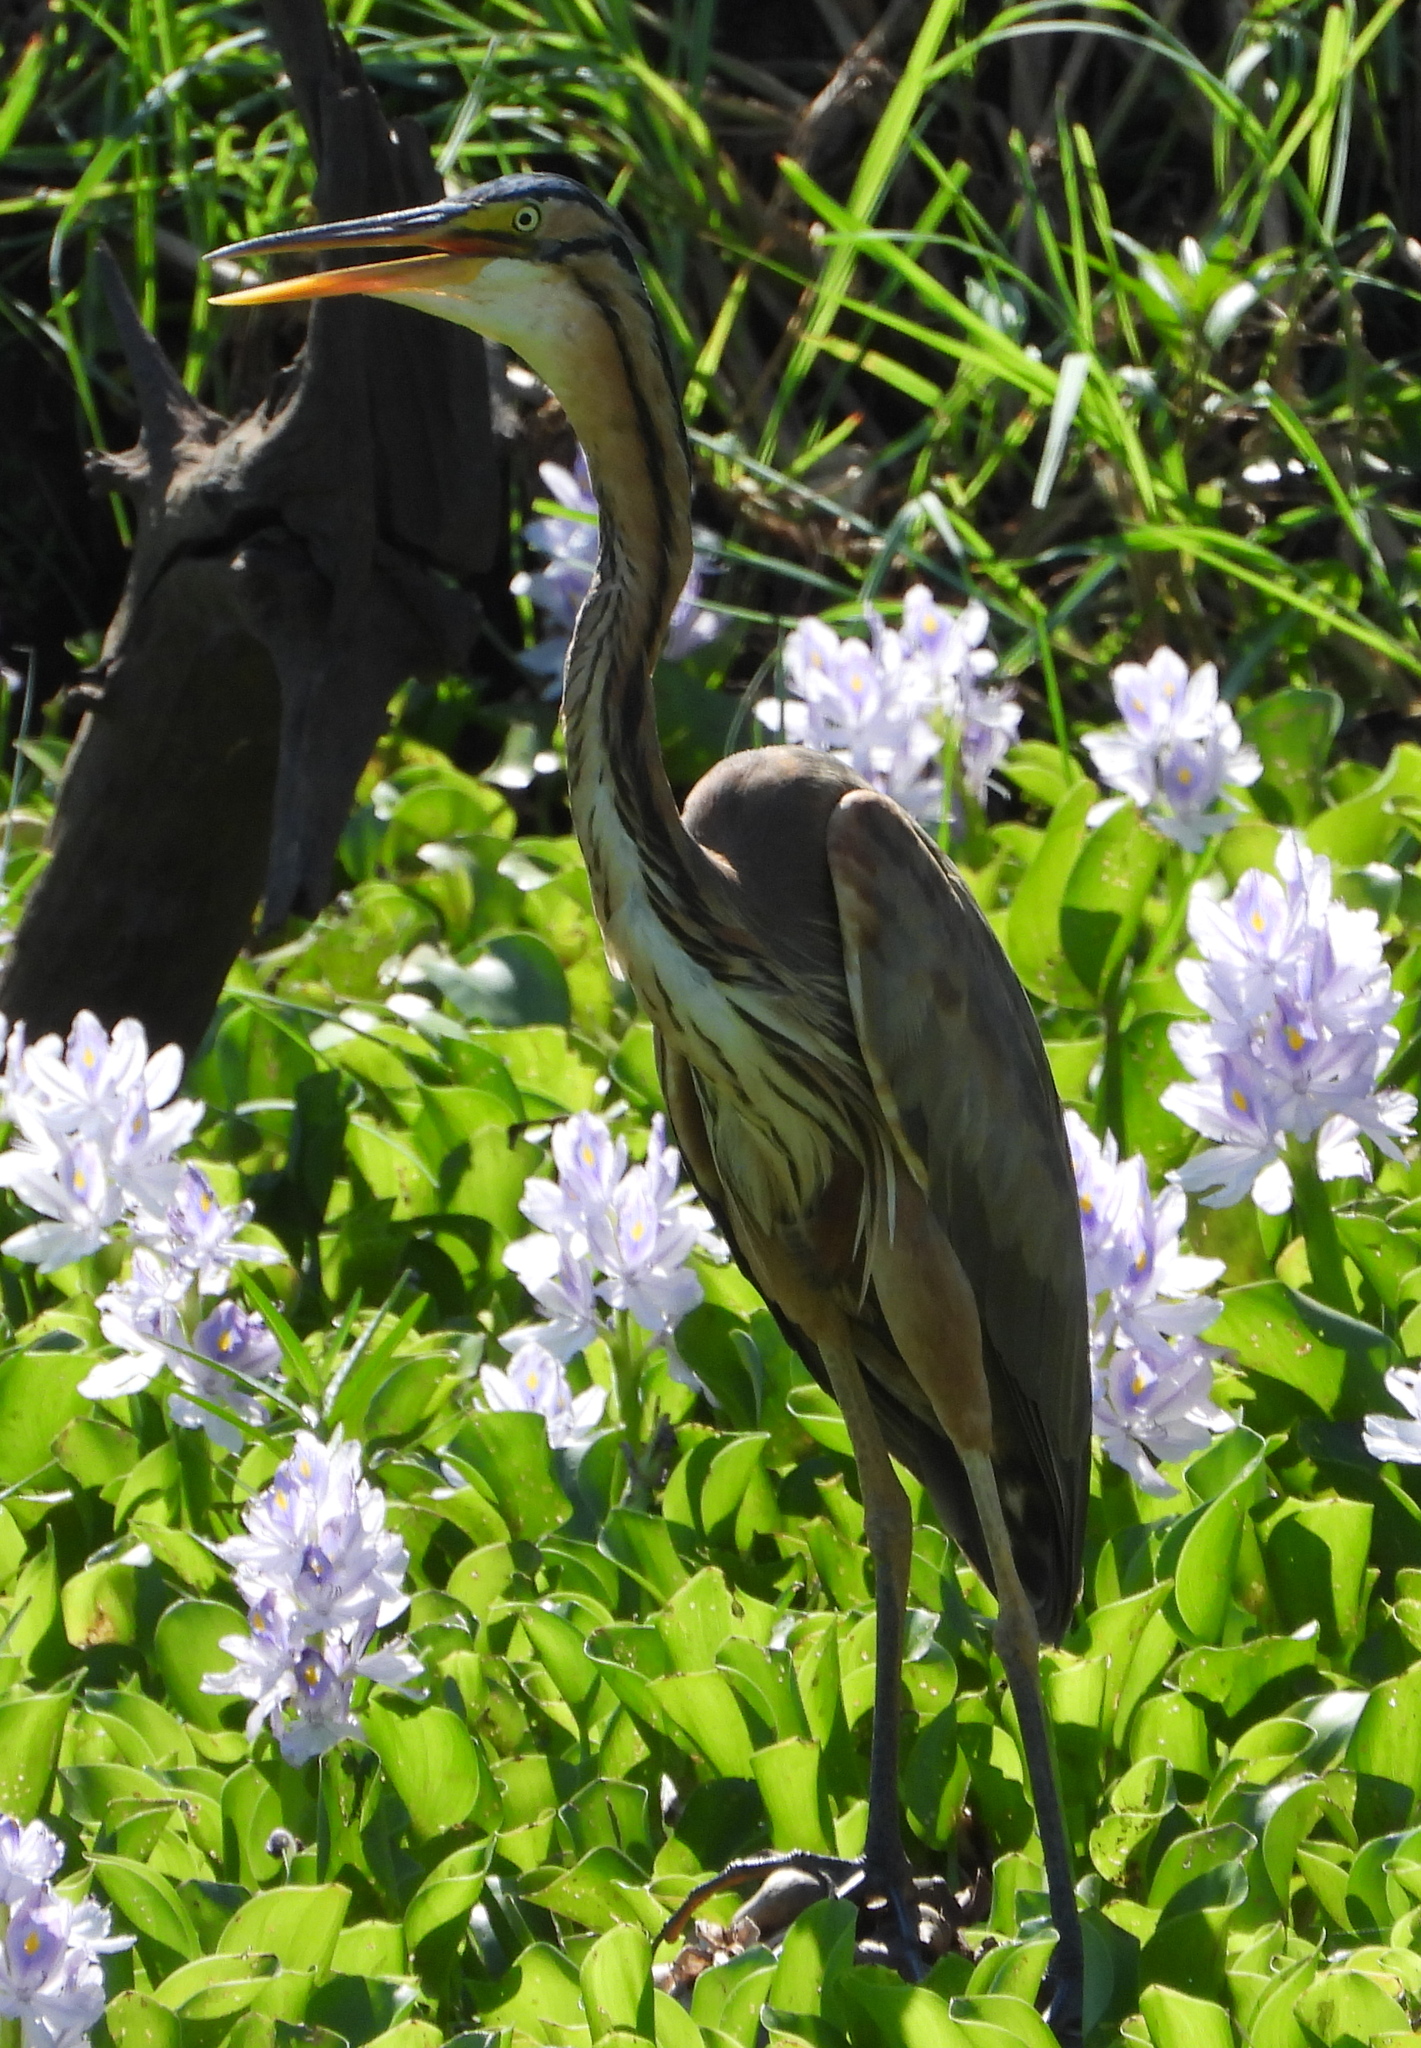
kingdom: Animalia
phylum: Chordata
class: Aves
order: Pelecaniformes
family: Ardeidae
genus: Ardea
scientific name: Ardea purpurea
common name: Purple heron
